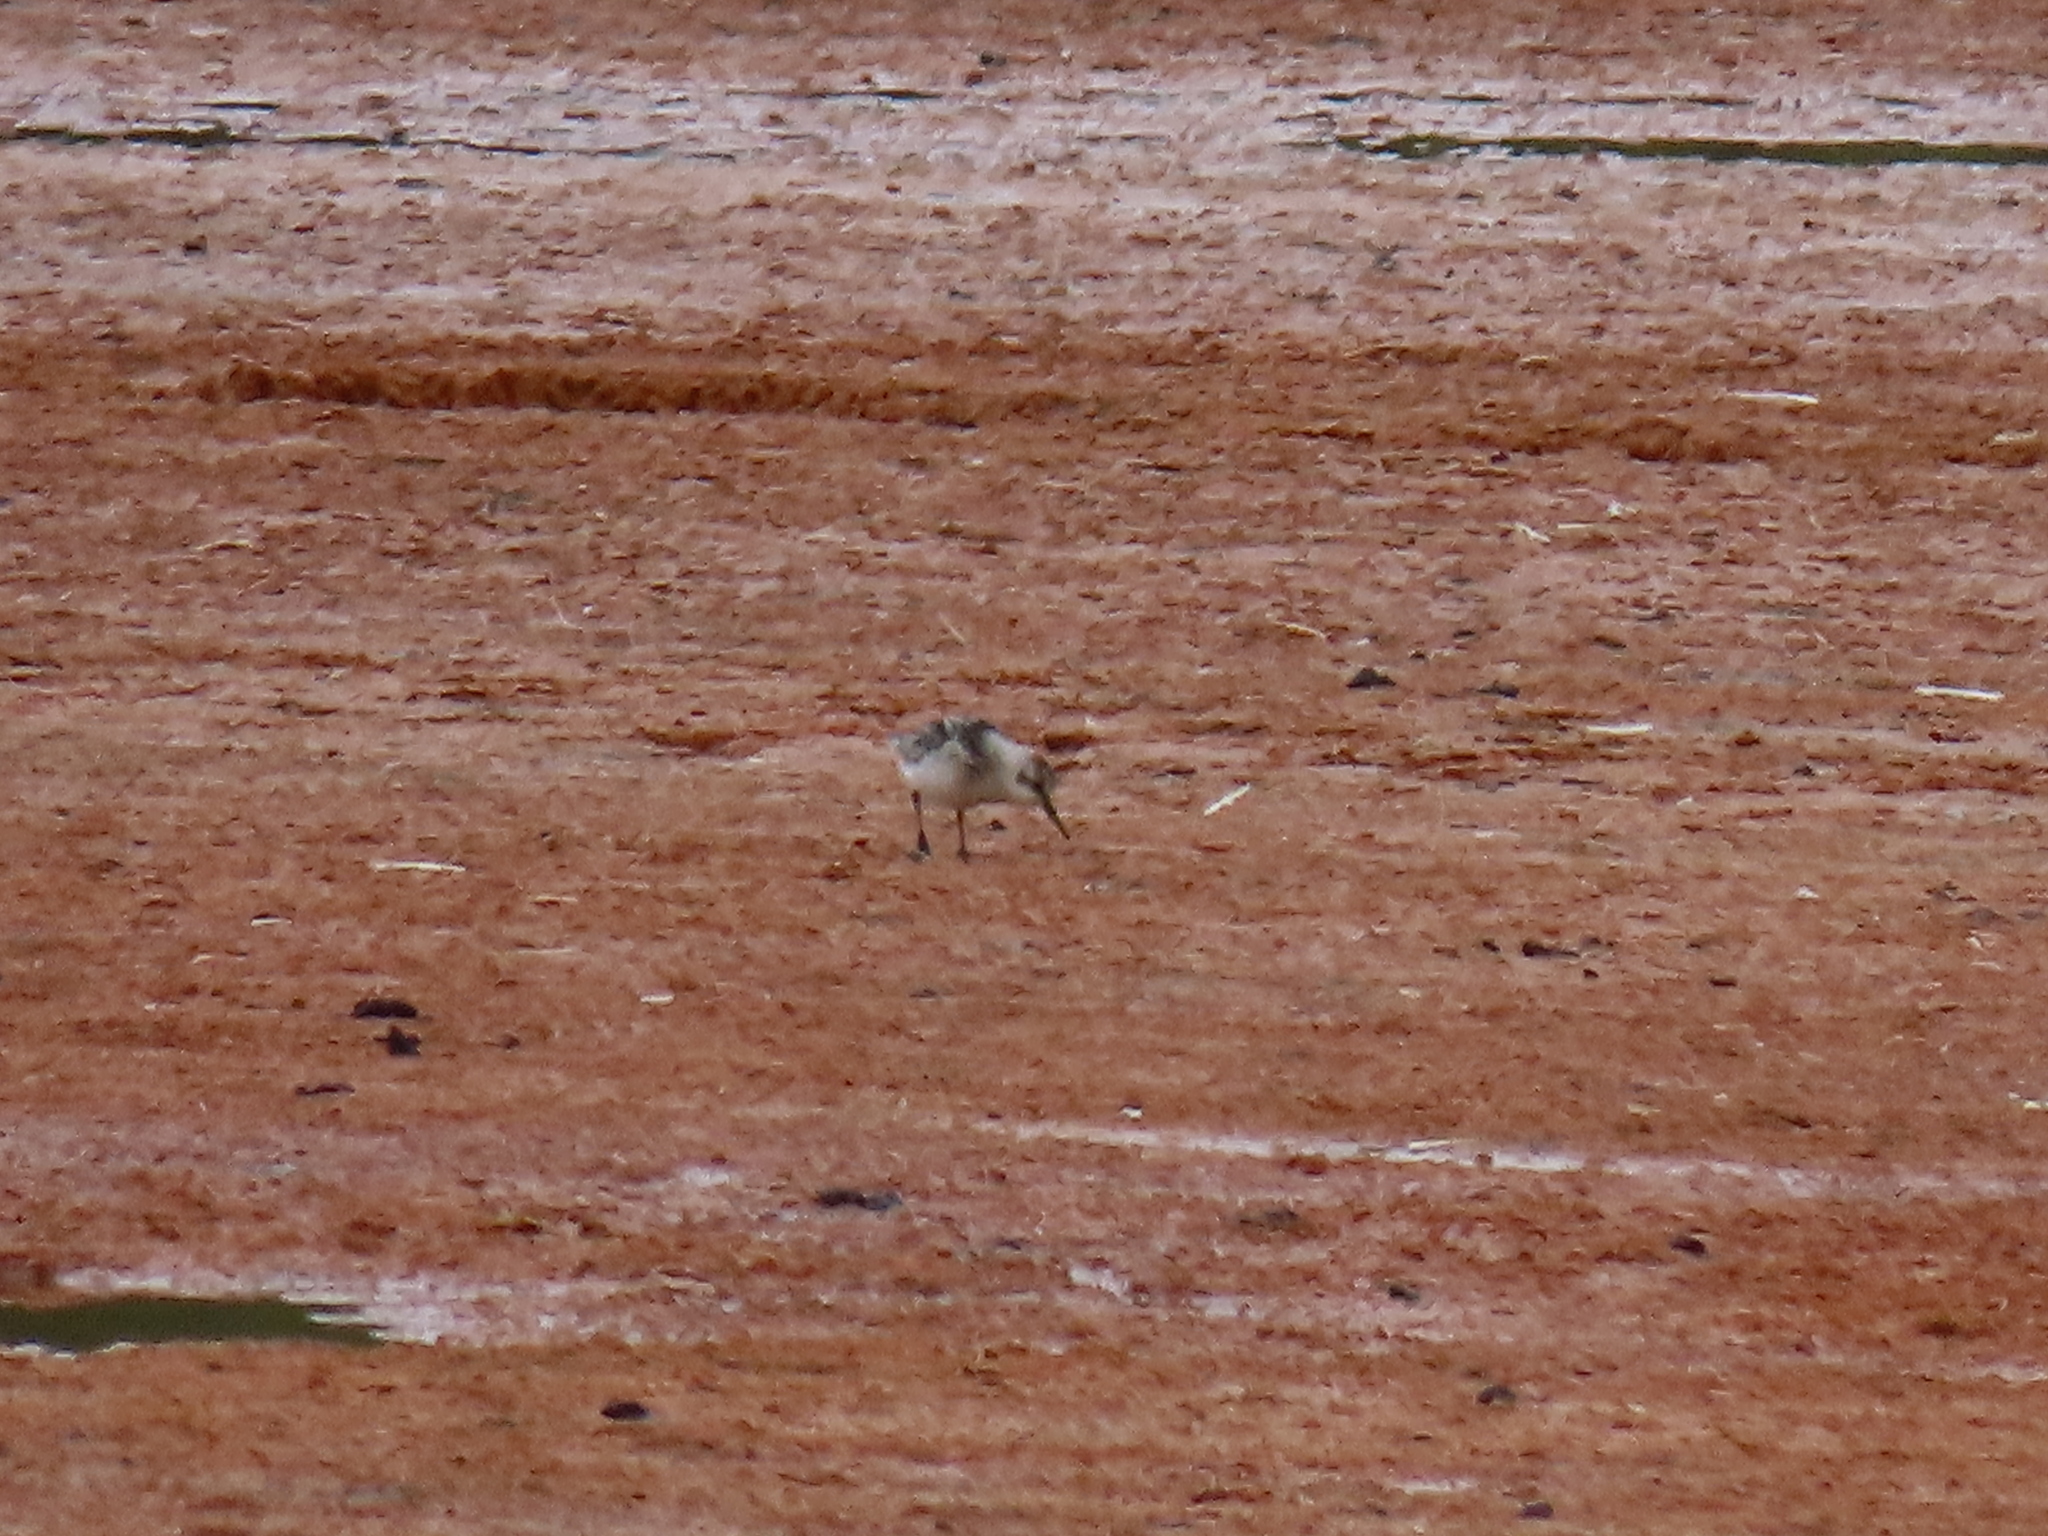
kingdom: Animalia
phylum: Chordata
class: Aves
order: Charadriiformes
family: Scolopacidae
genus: Calidris
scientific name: Calidris alba
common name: Sanderling
